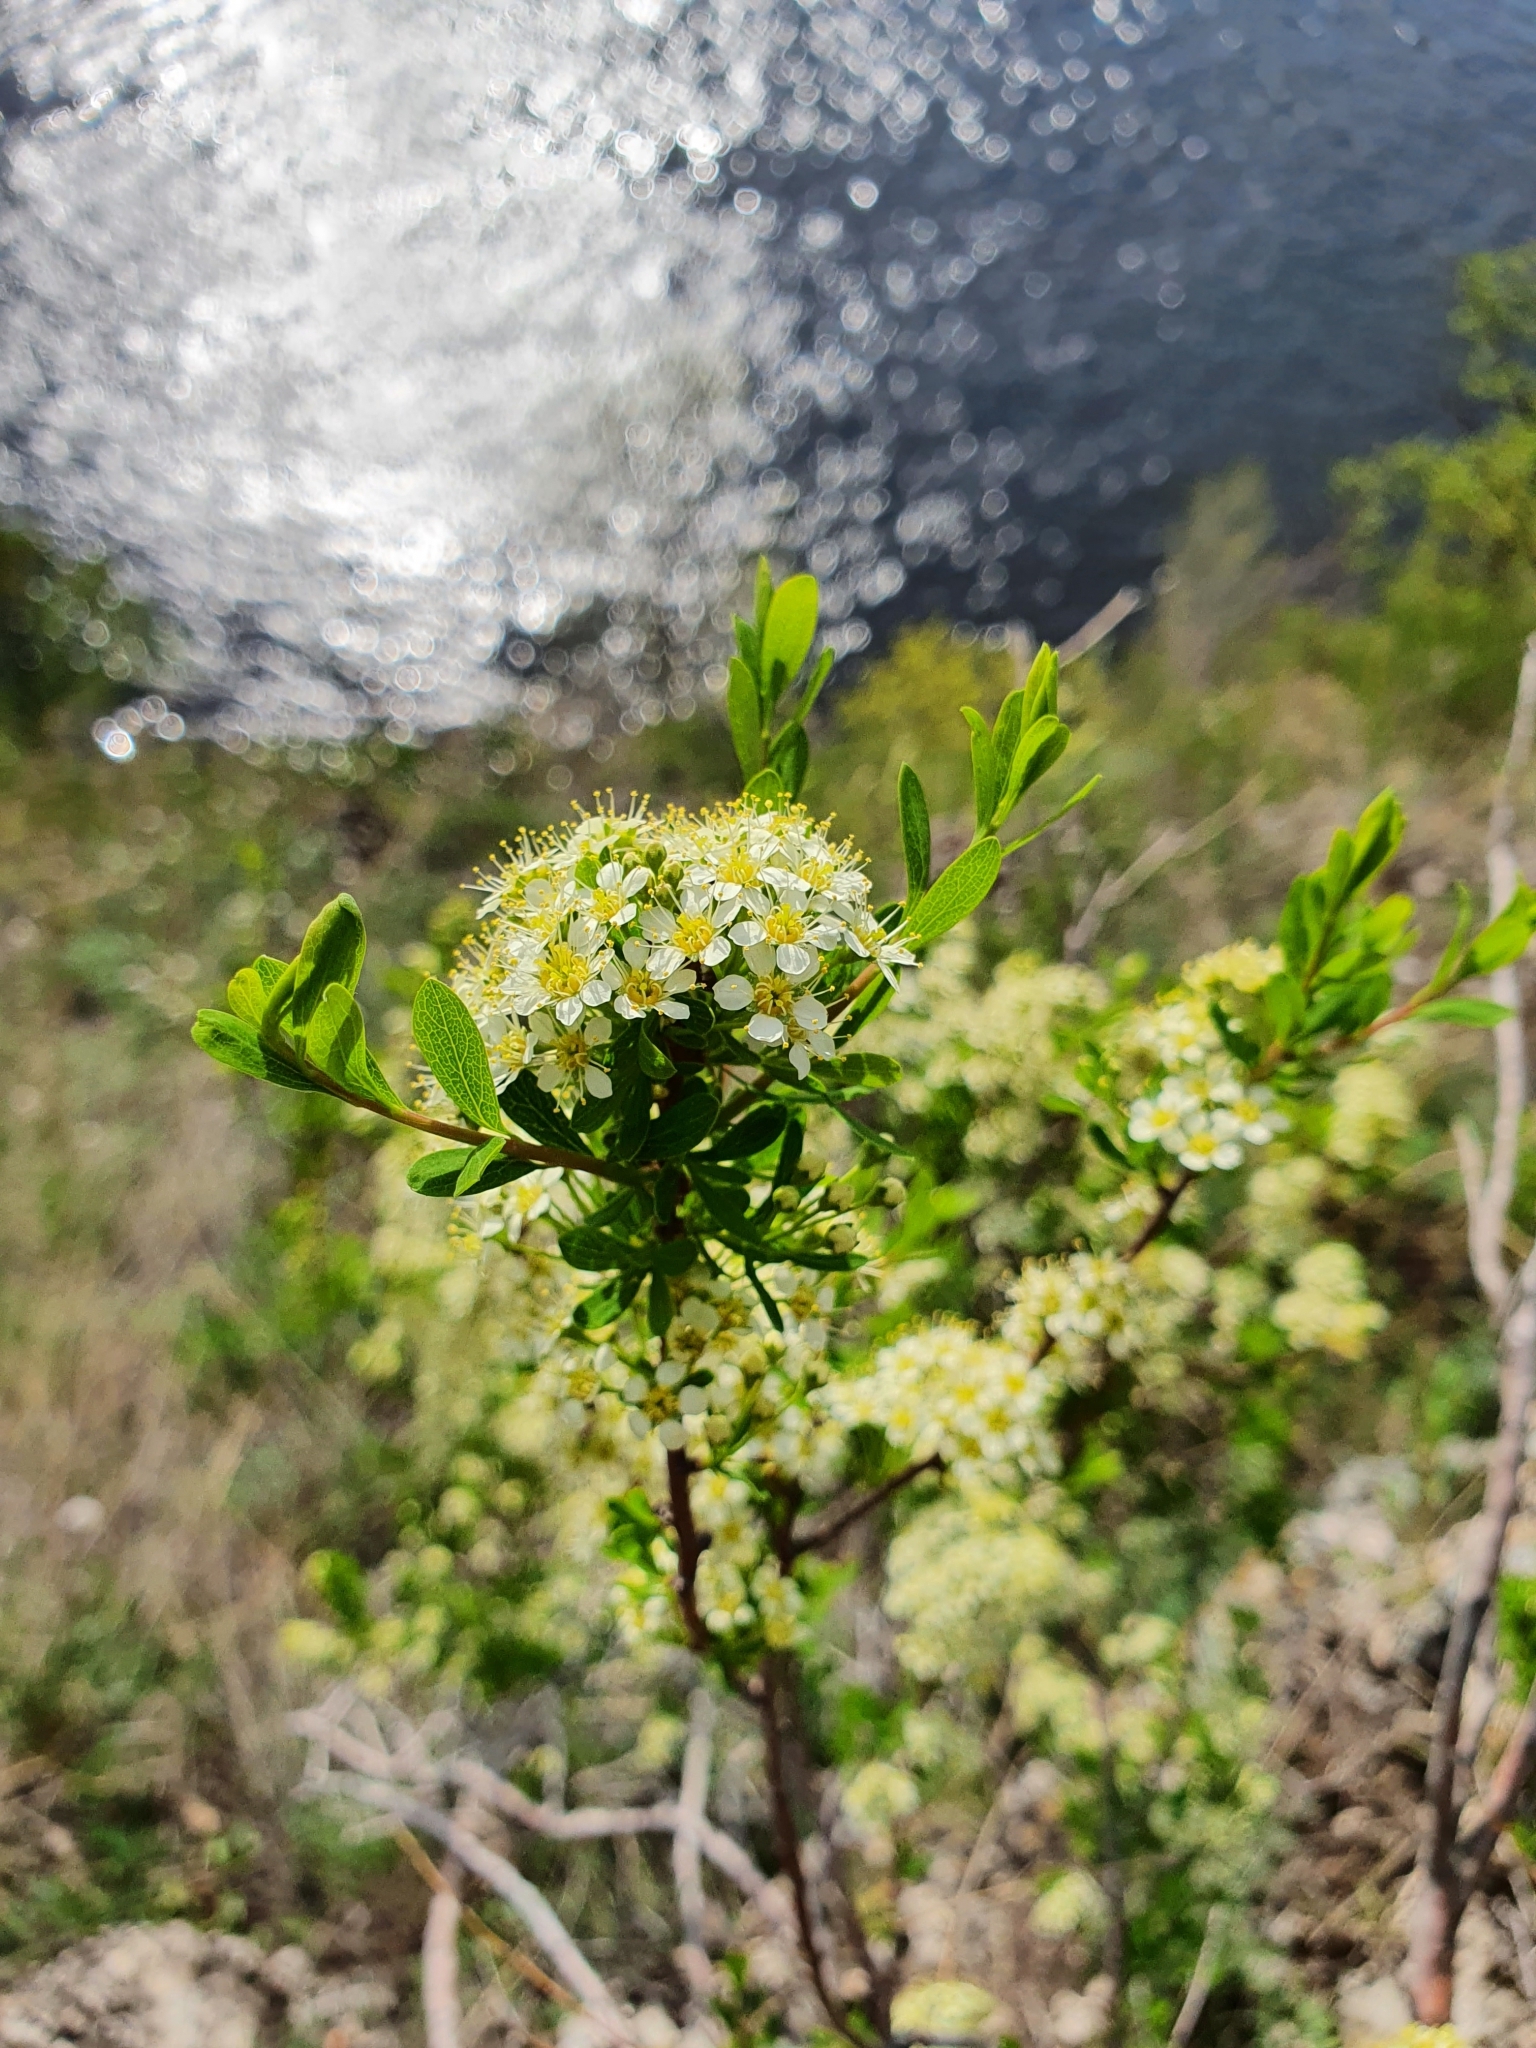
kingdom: Plantae
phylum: Tracheophyta
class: Magnoliopsida
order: Rosales
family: Rosaceae
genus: Spiraea
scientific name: Spiraea hypericifolia
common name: Iberian spirea
